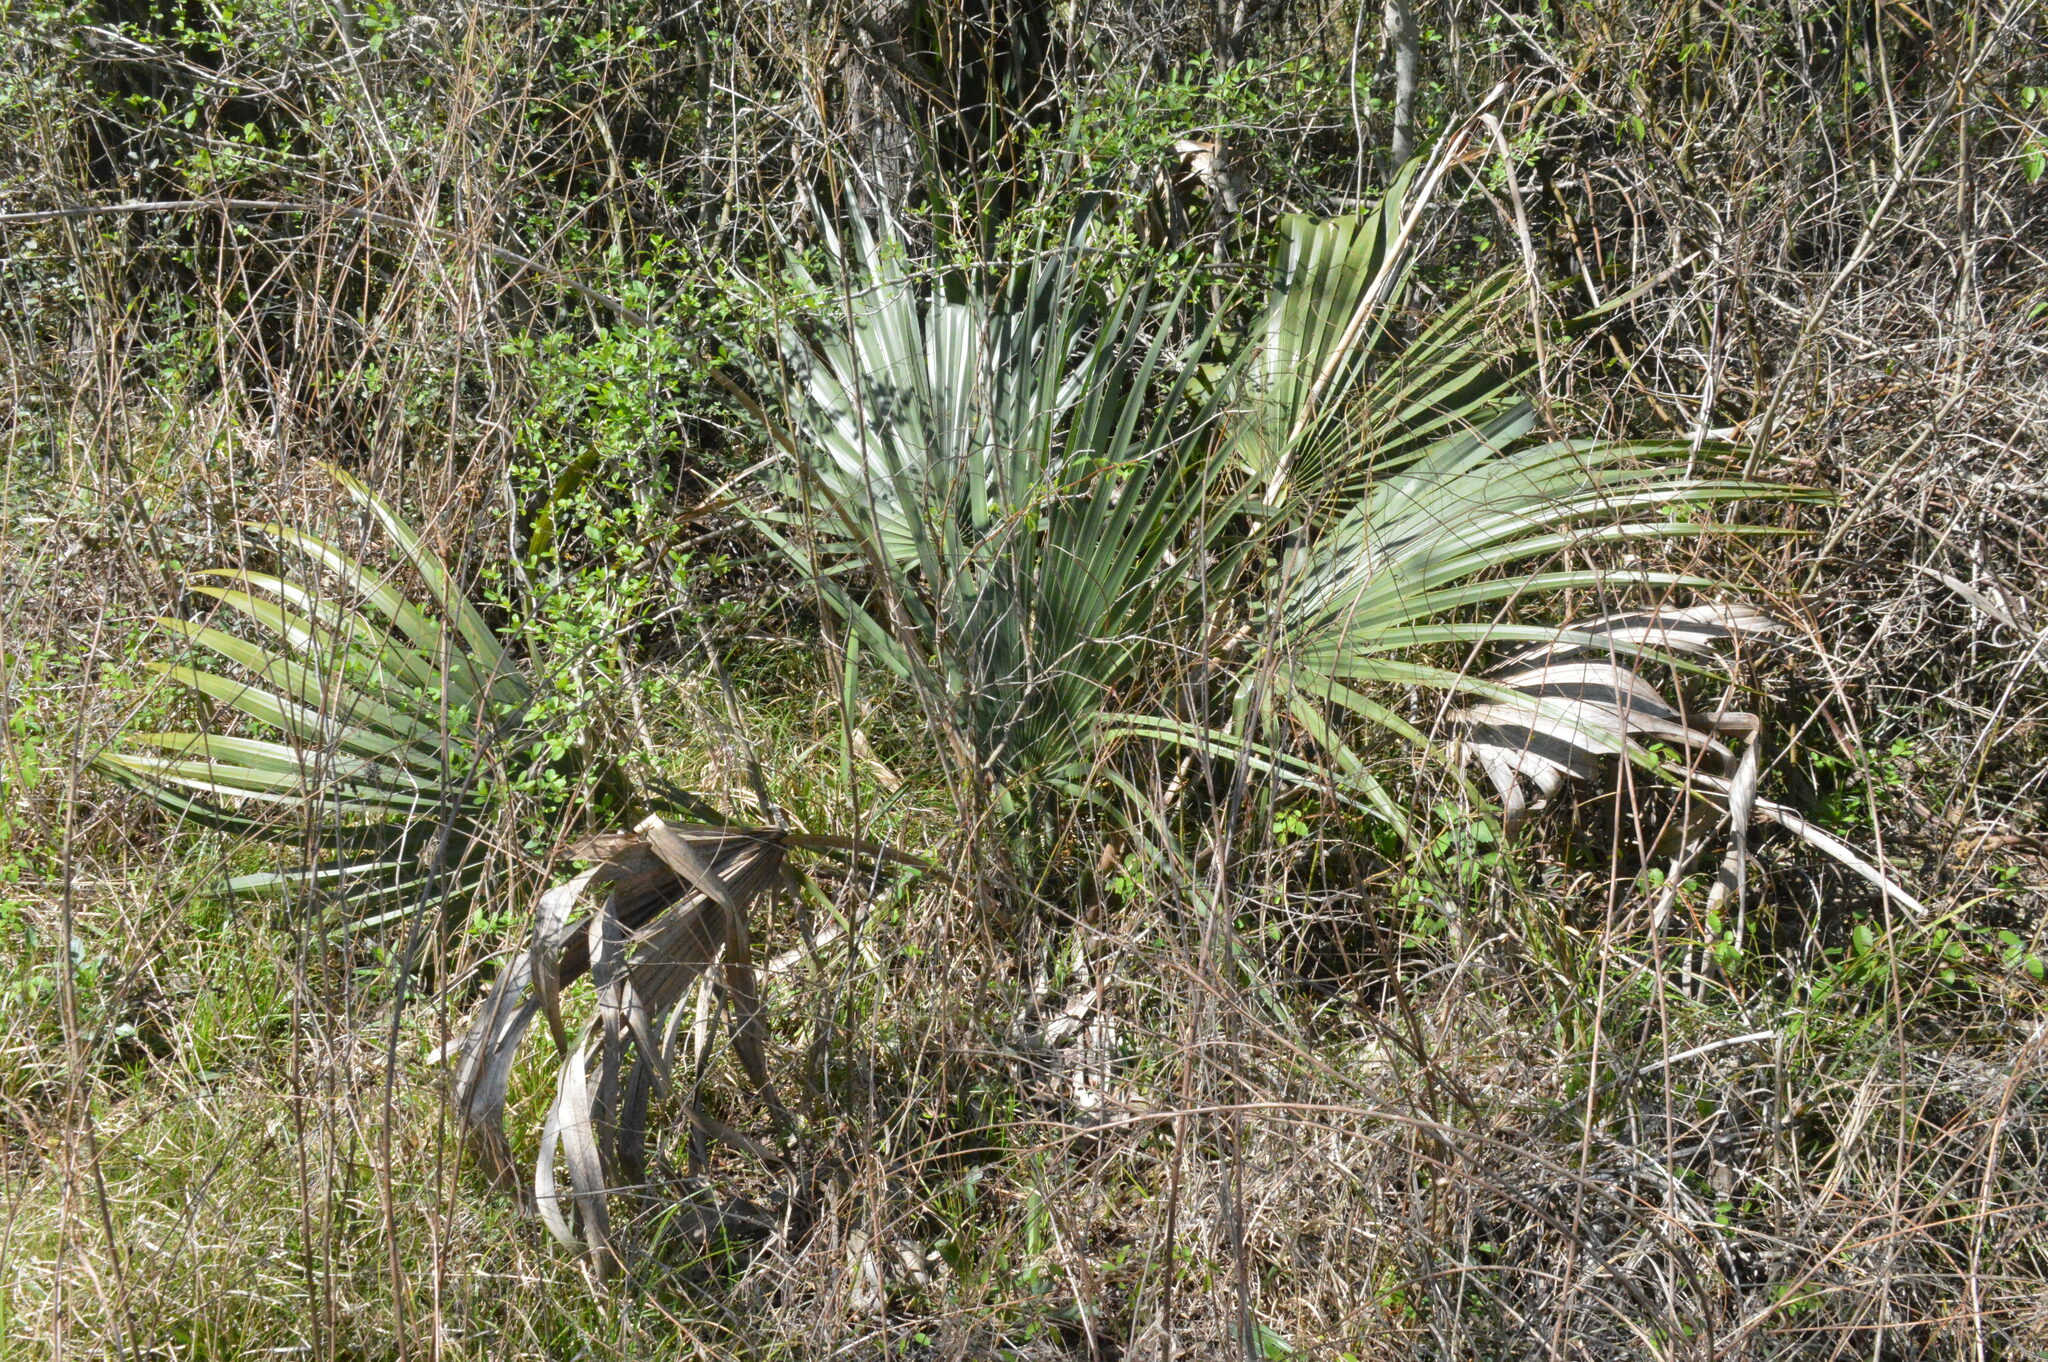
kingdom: Plantae
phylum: Tracheophyta
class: Liliopsida
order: Arecales
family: Arecaceae
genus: Sabal
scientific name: Sabal minor
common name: Dwarf palmetto
